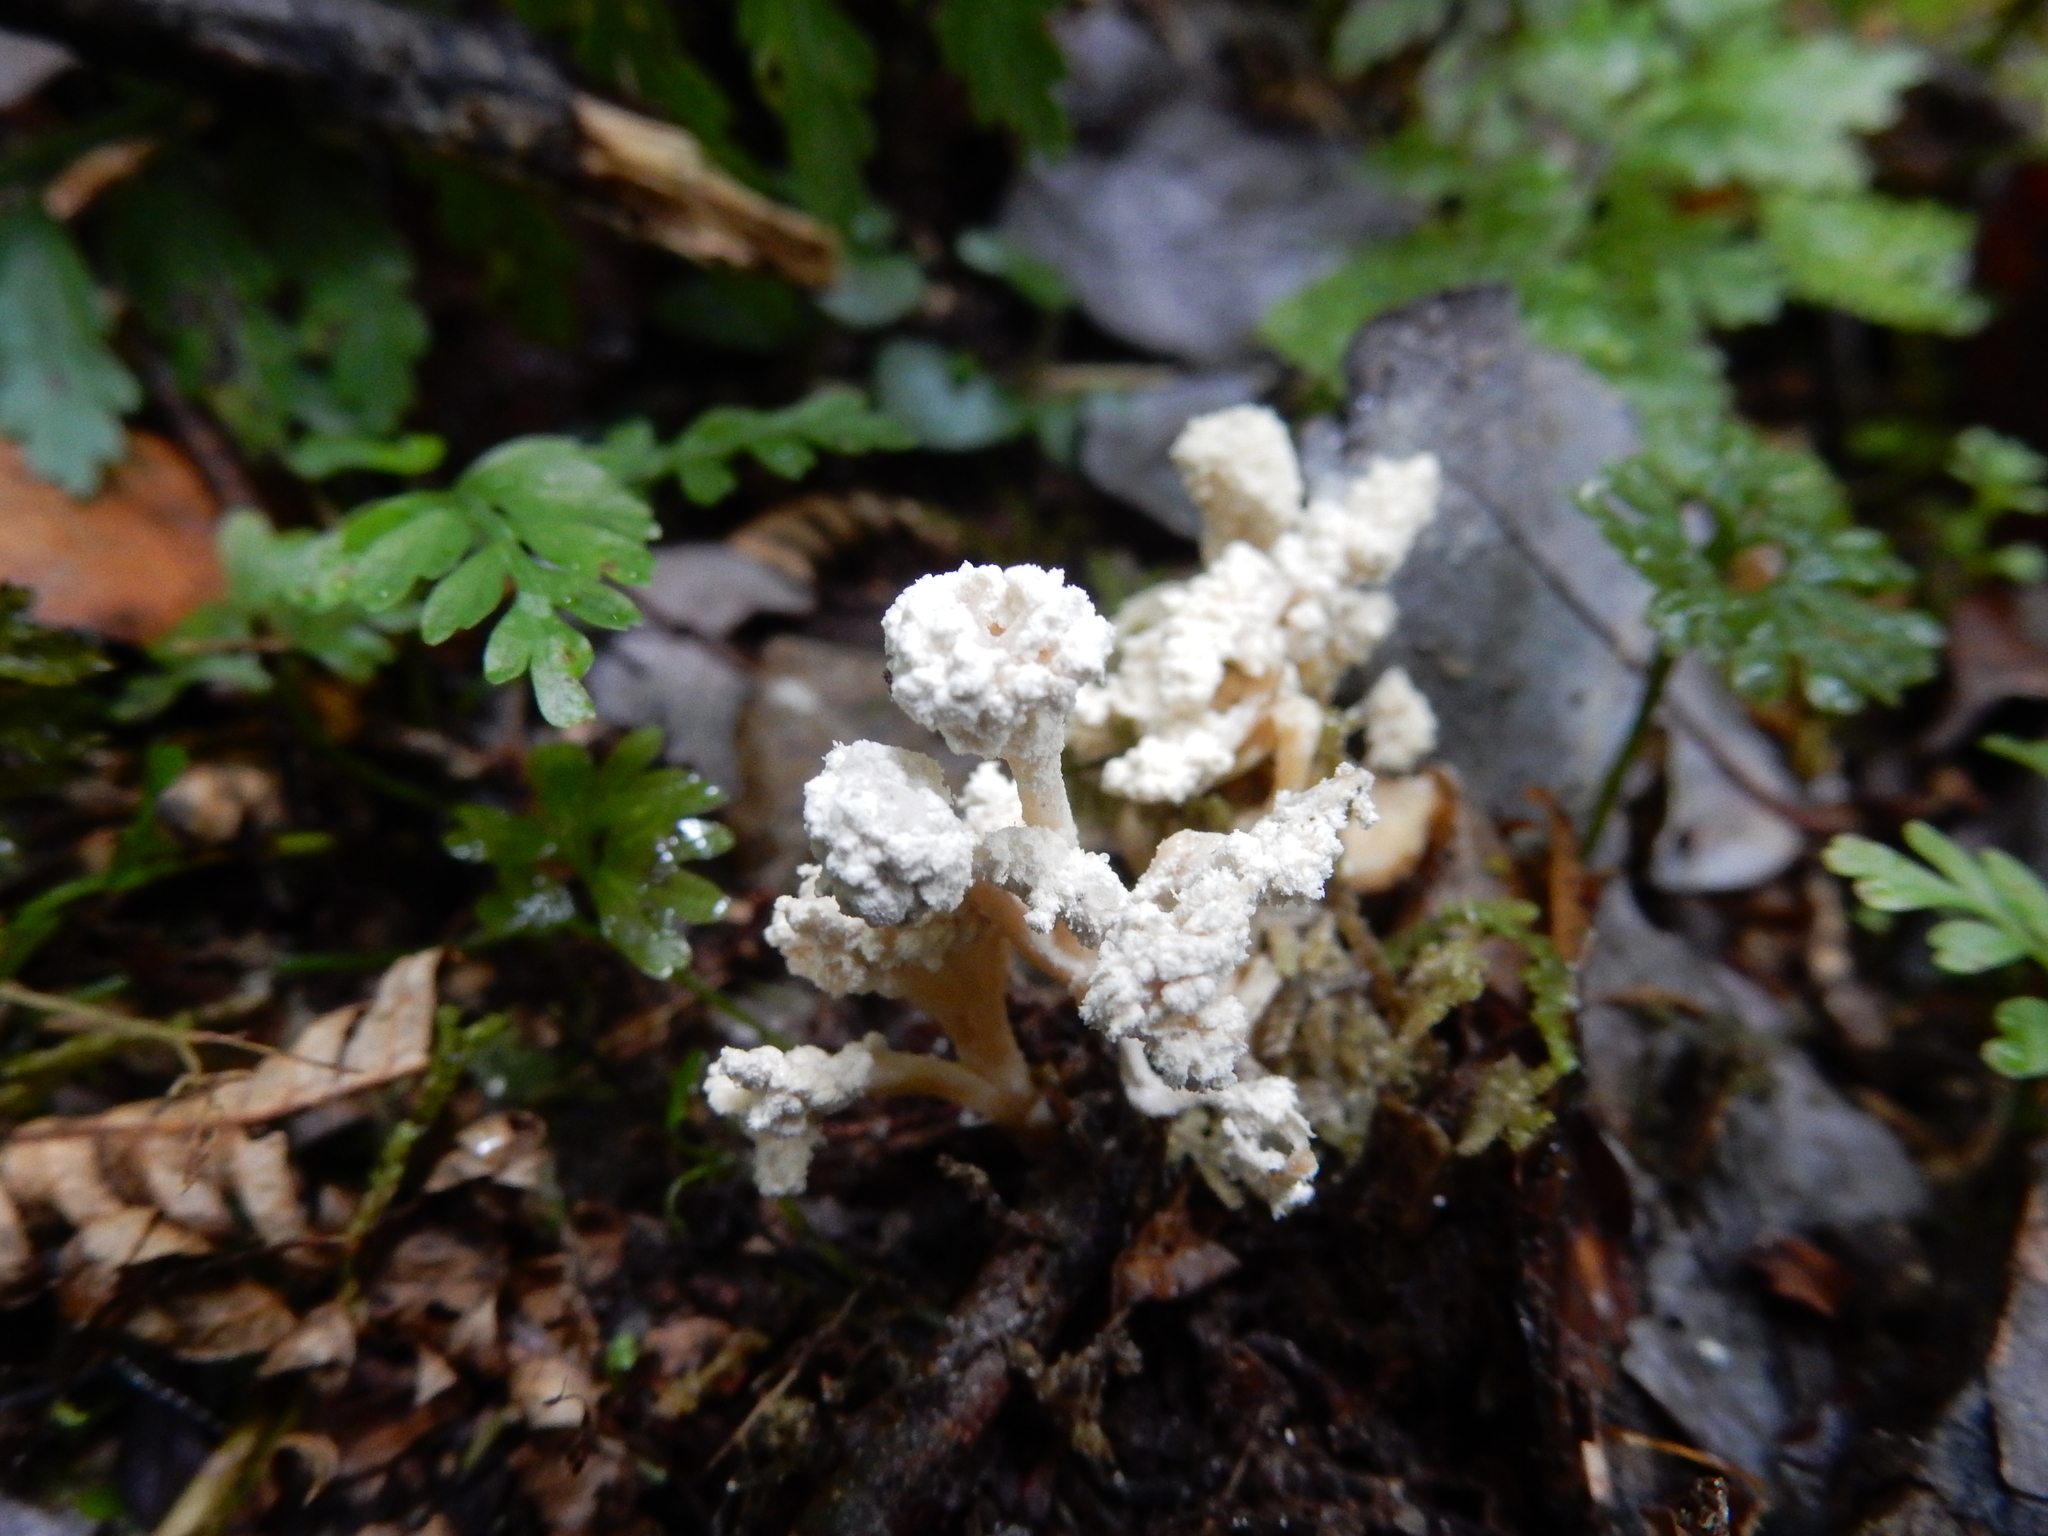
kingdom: Fungi
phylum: Ascomycota
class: Sordariomycetes
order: Hypocreales
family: Cordycipitaceae
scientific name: Cordycipitaceae
